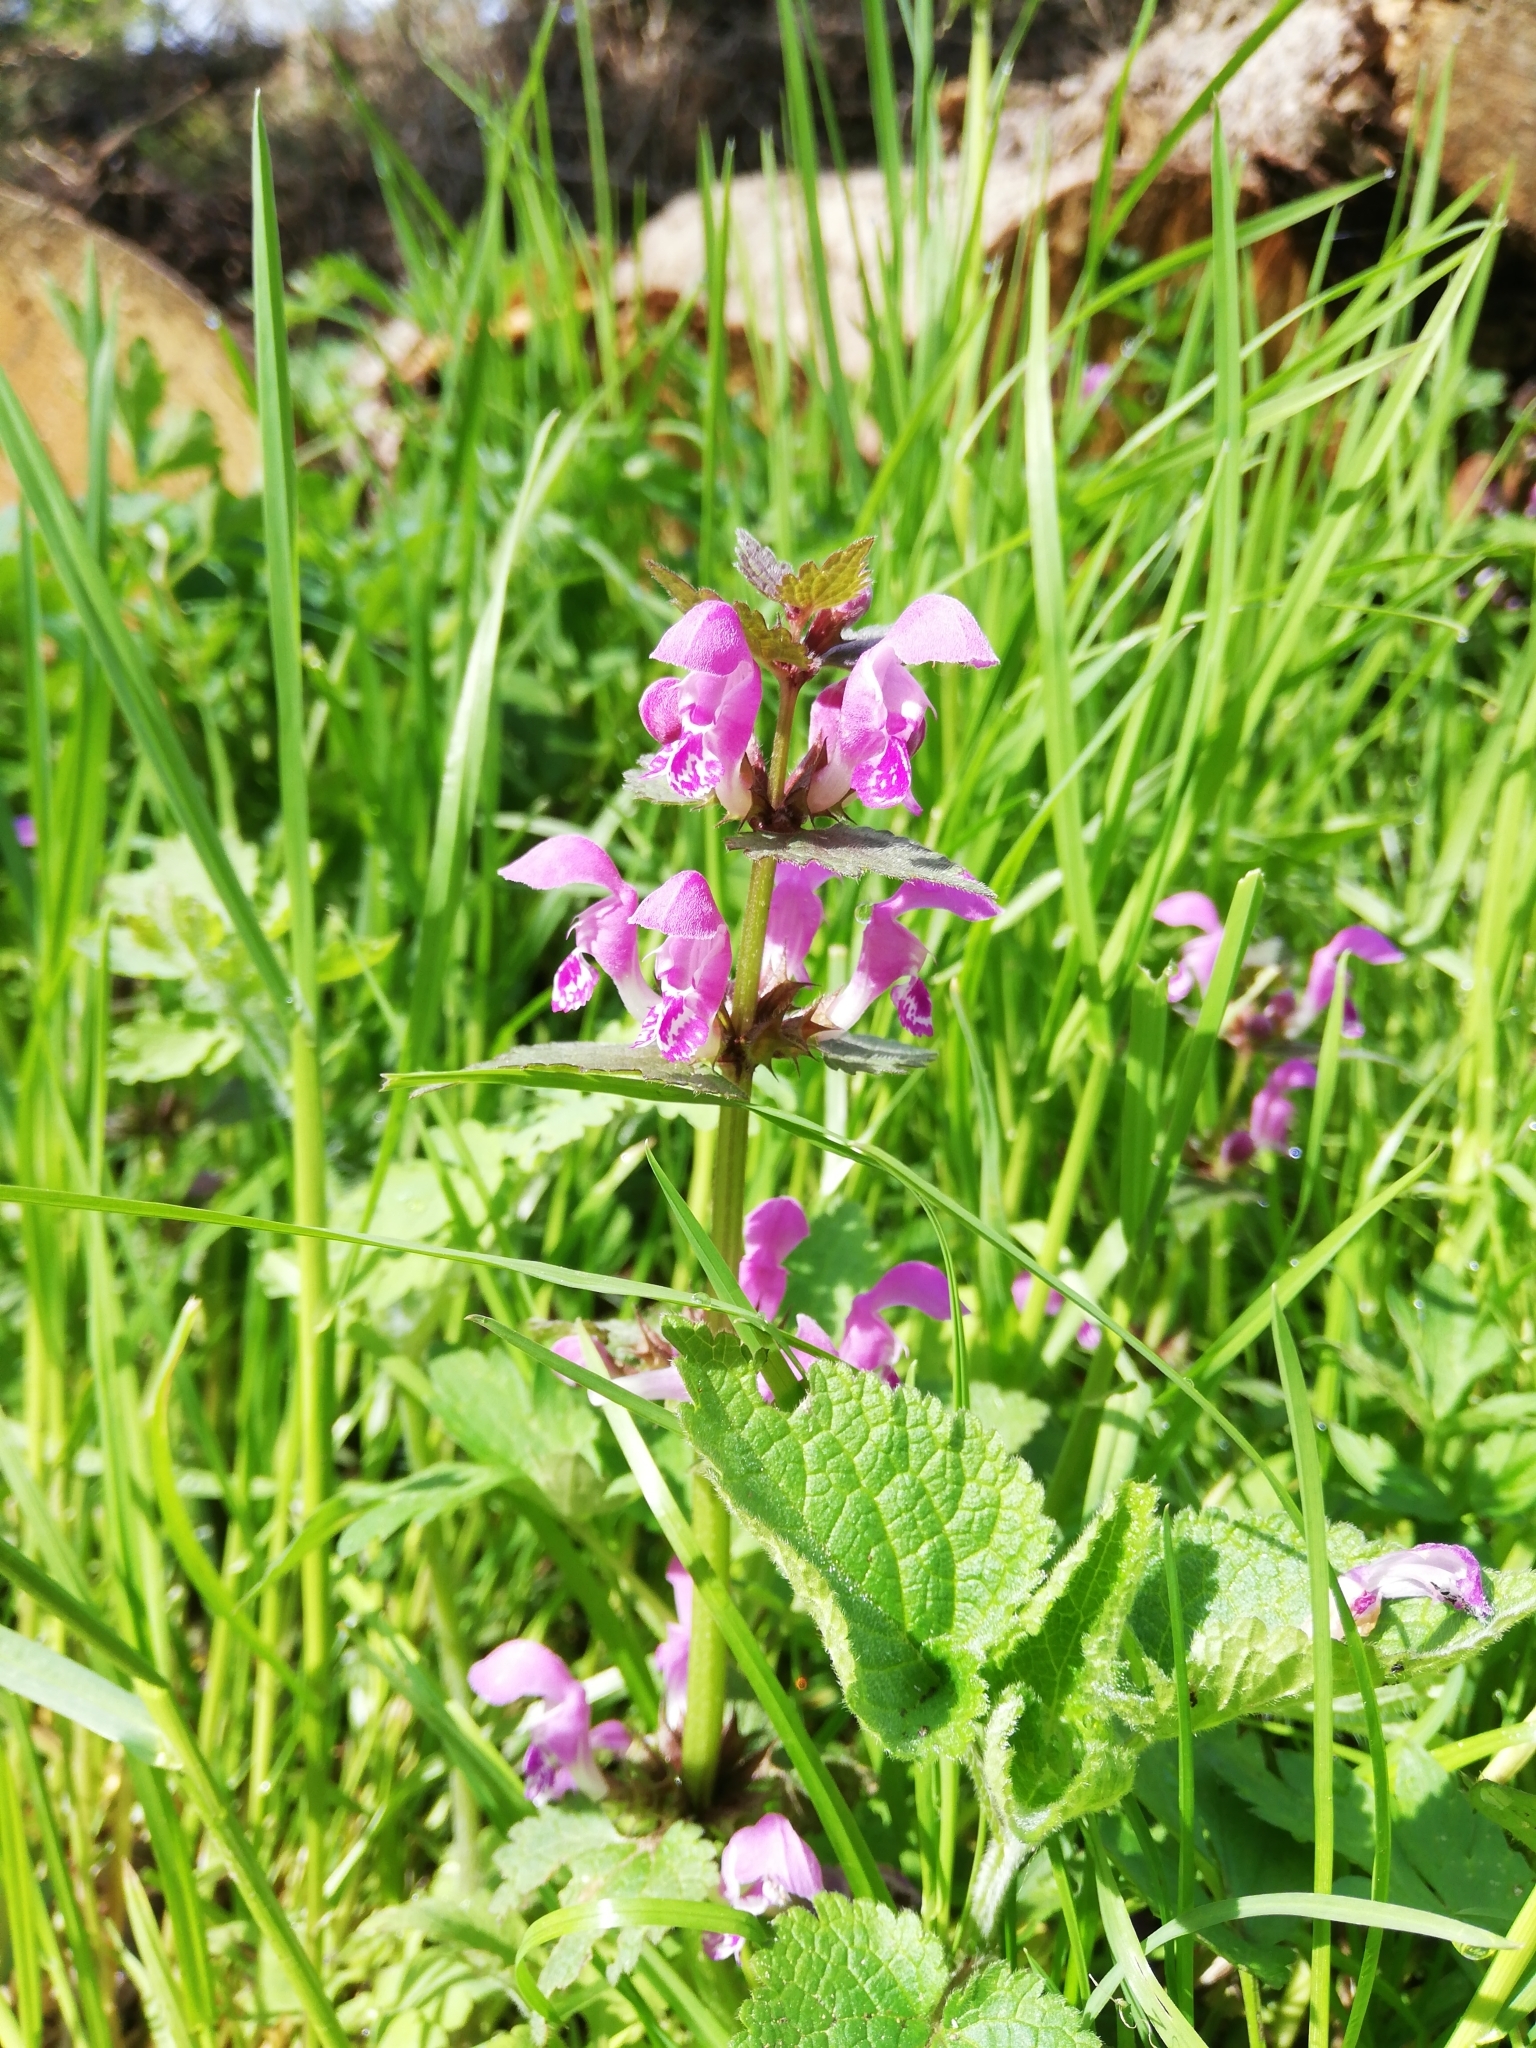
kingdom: Plantae
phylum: Tracheophyta
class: Magnoliopsida
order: Lamiales
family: Lamiaceae
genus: Lamium
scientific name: Lamium maculatum
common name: Spotted dead-nettle
